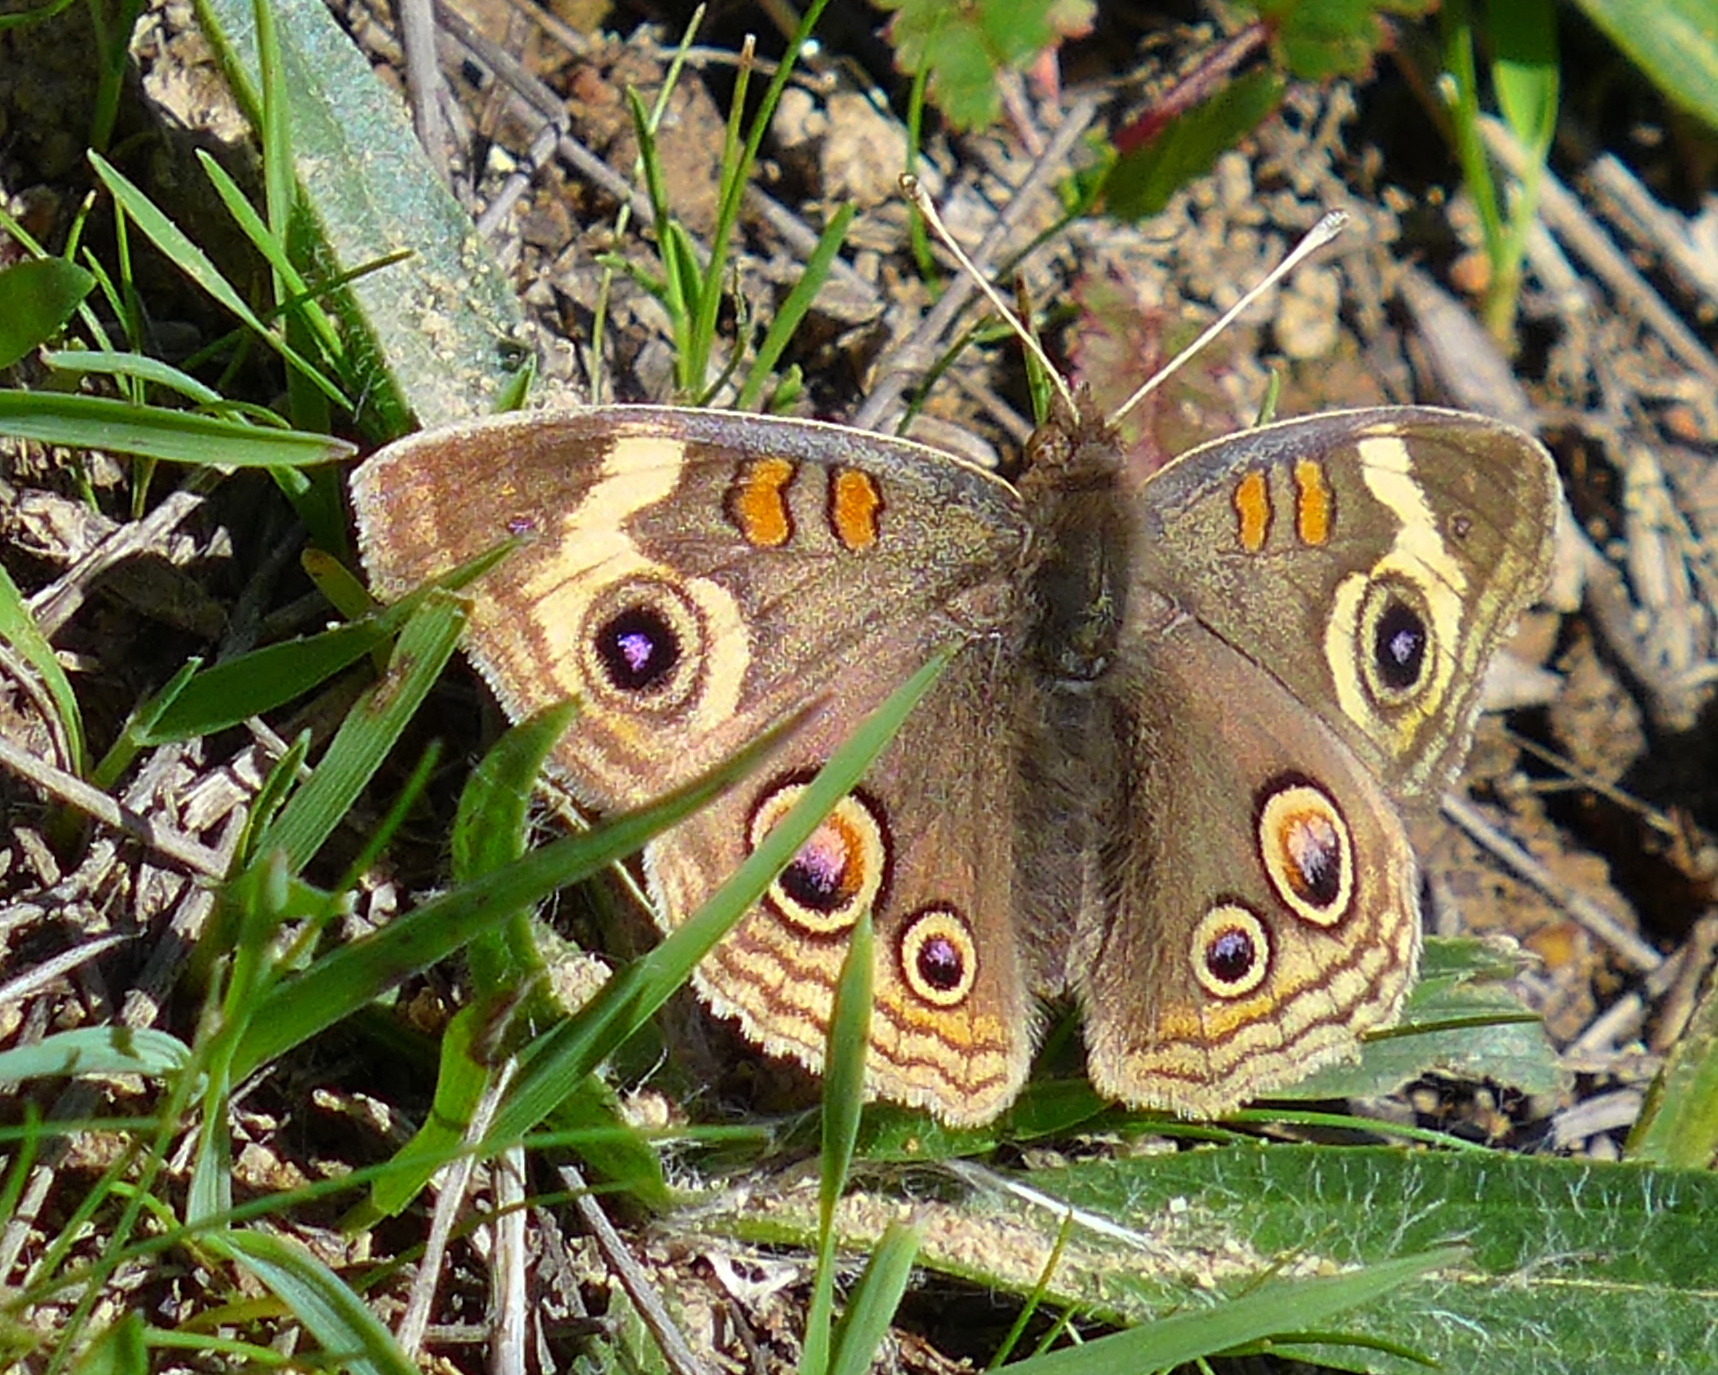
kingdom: Animalia
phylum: Arthropoda
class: Insecta
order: Lepidoptera
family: Nymphalidae
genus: Junonia
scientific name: Junonia grisea
